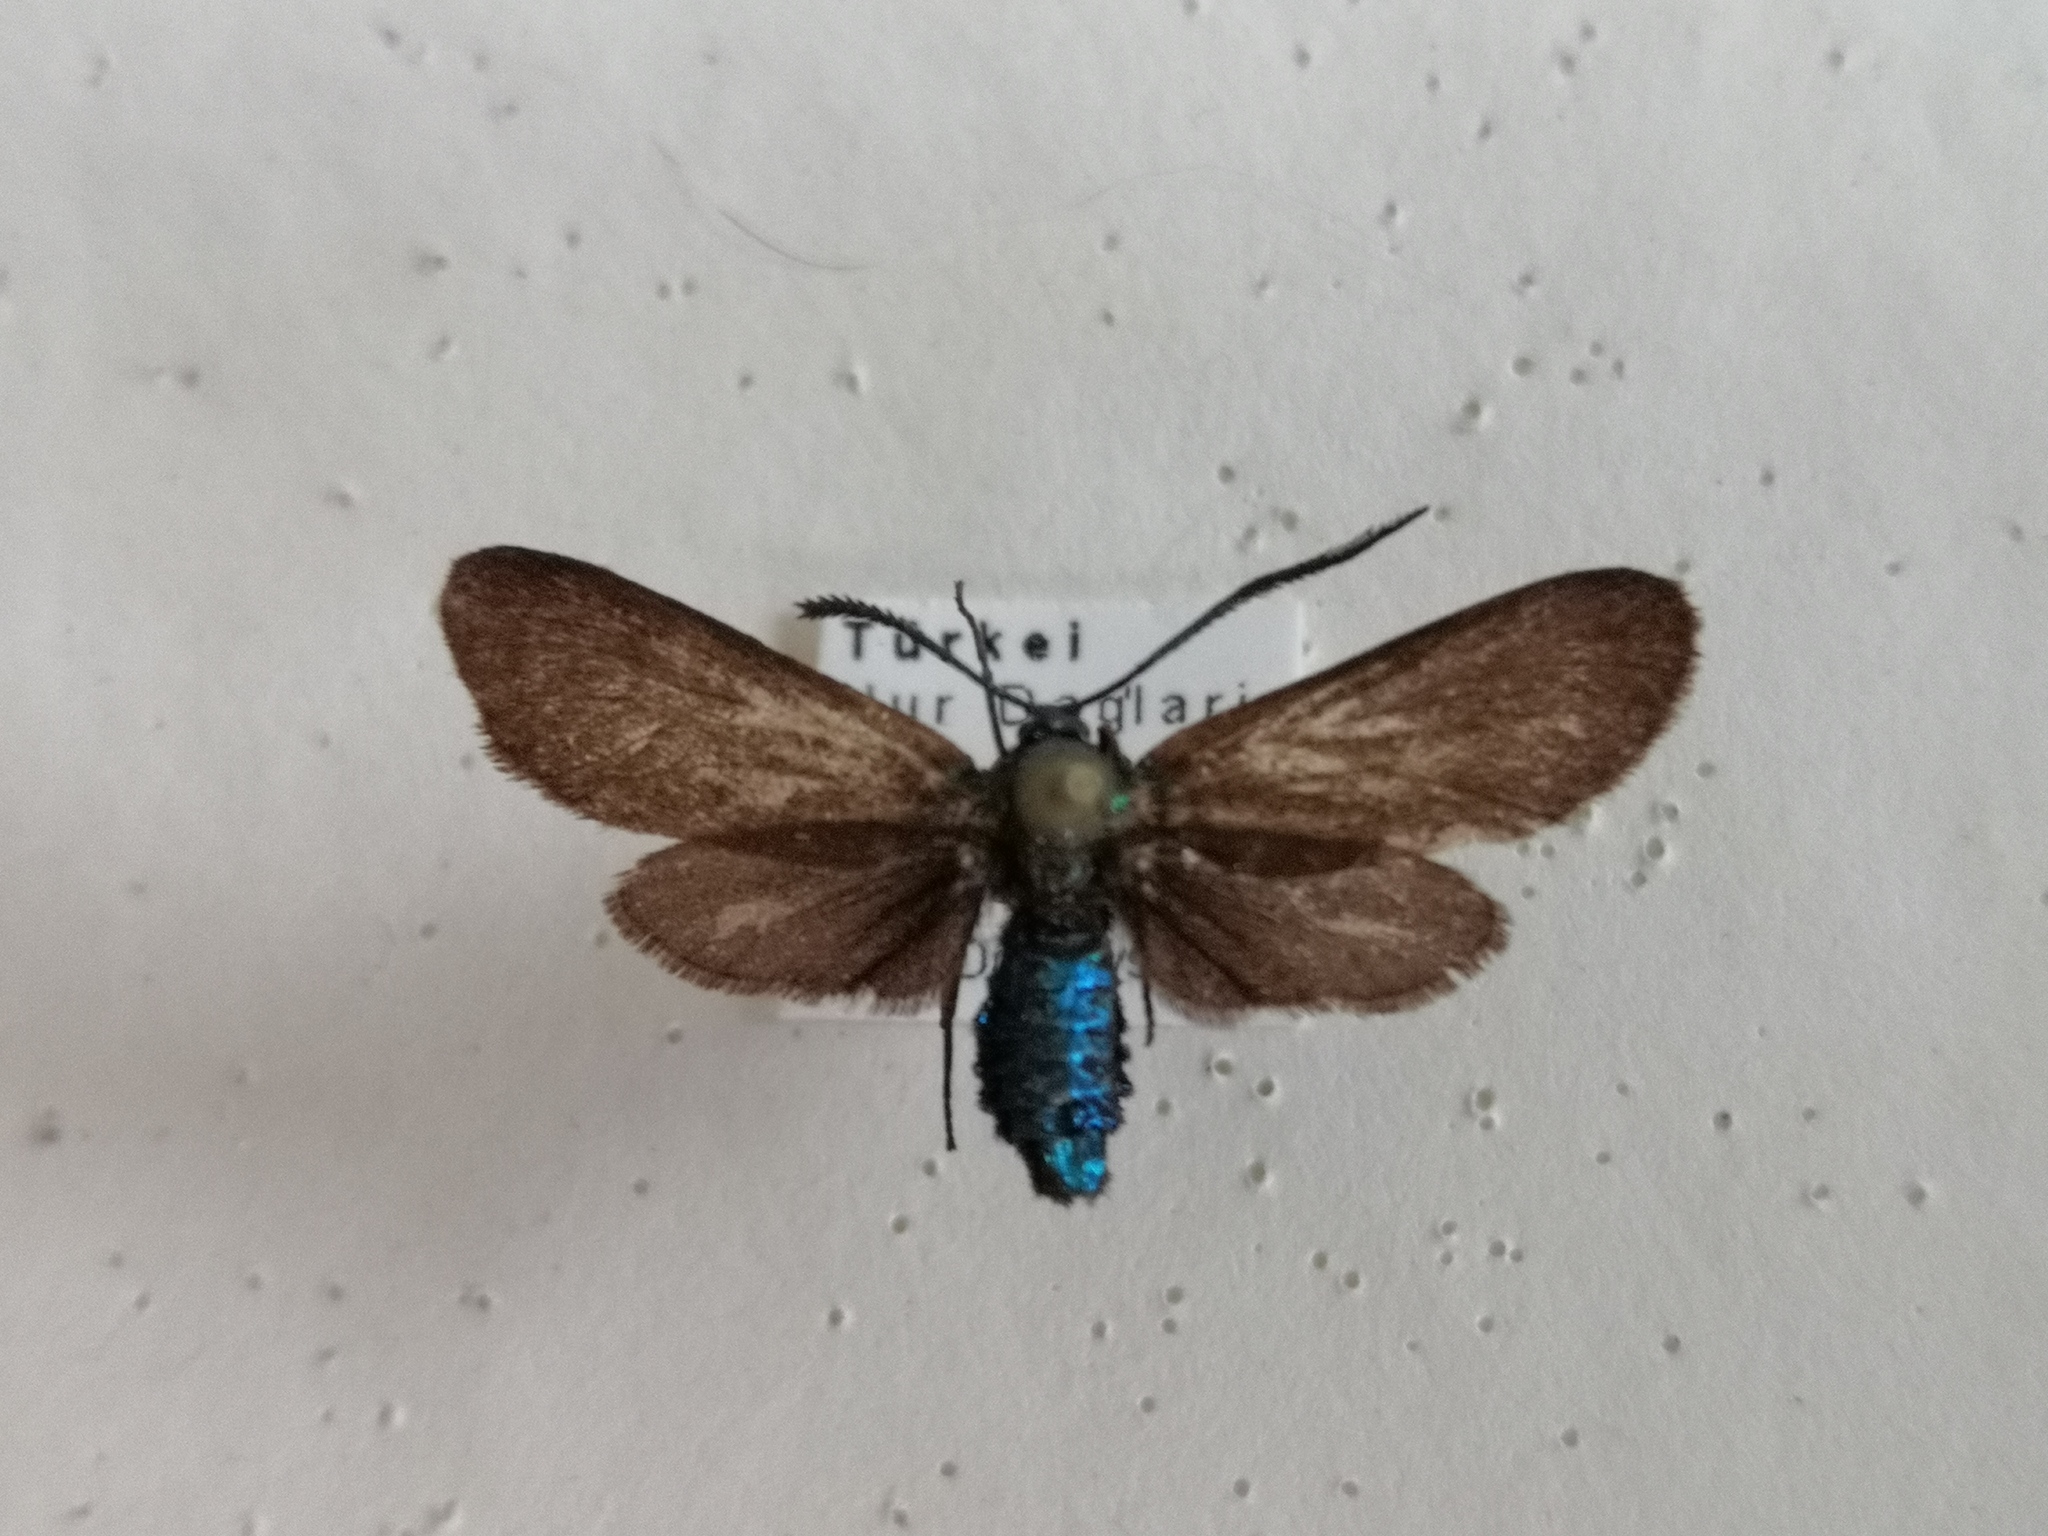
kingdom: Animalia
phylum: Arthropoda
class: Insecta
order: Lepidoptera
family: Zygaenidae
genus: Theresimima
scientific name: Theresimima ampellophaga
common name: Vine bud moth
